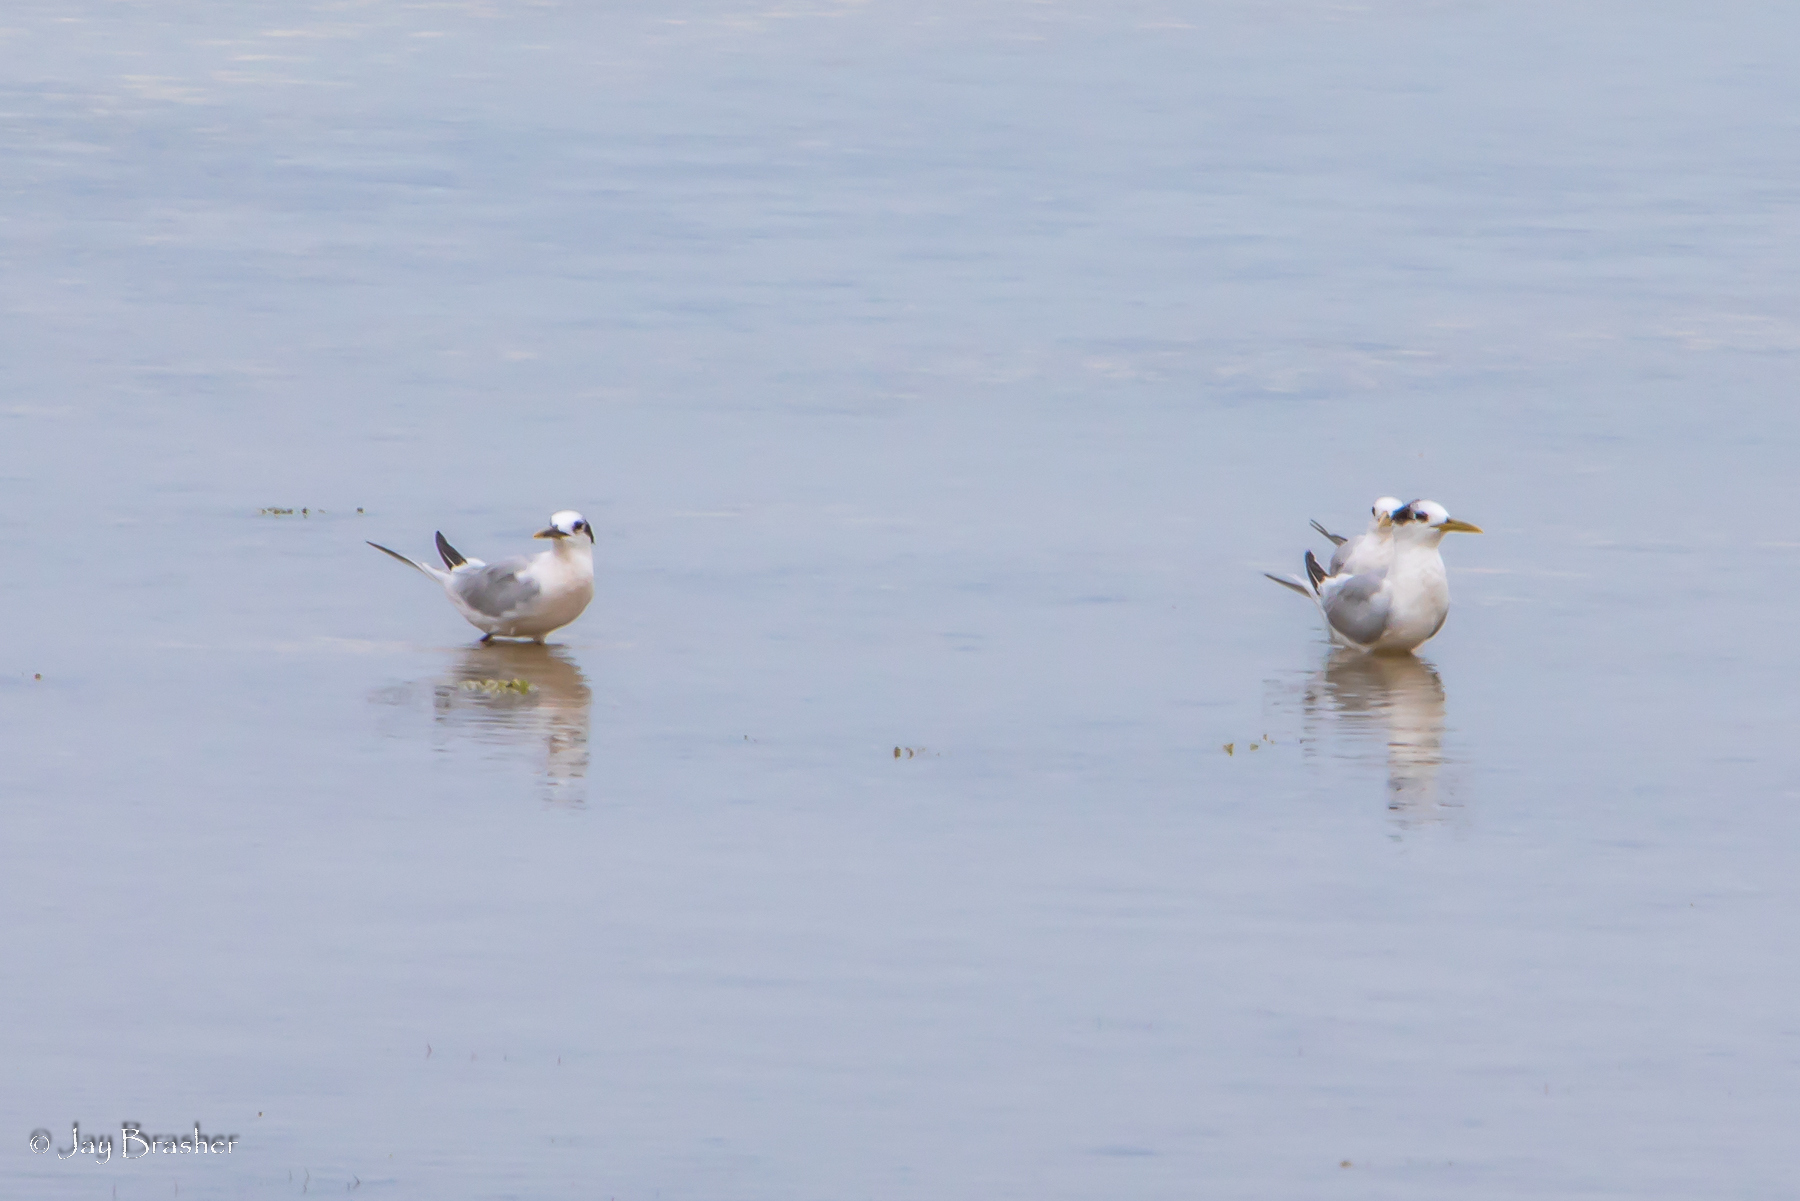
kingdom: Animalia
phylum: Chordata
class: Aves
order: Charadriiformes
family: Laridae
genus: Thalasseus
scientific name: Thalasseus acuflavidus
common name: Cabot's tern
